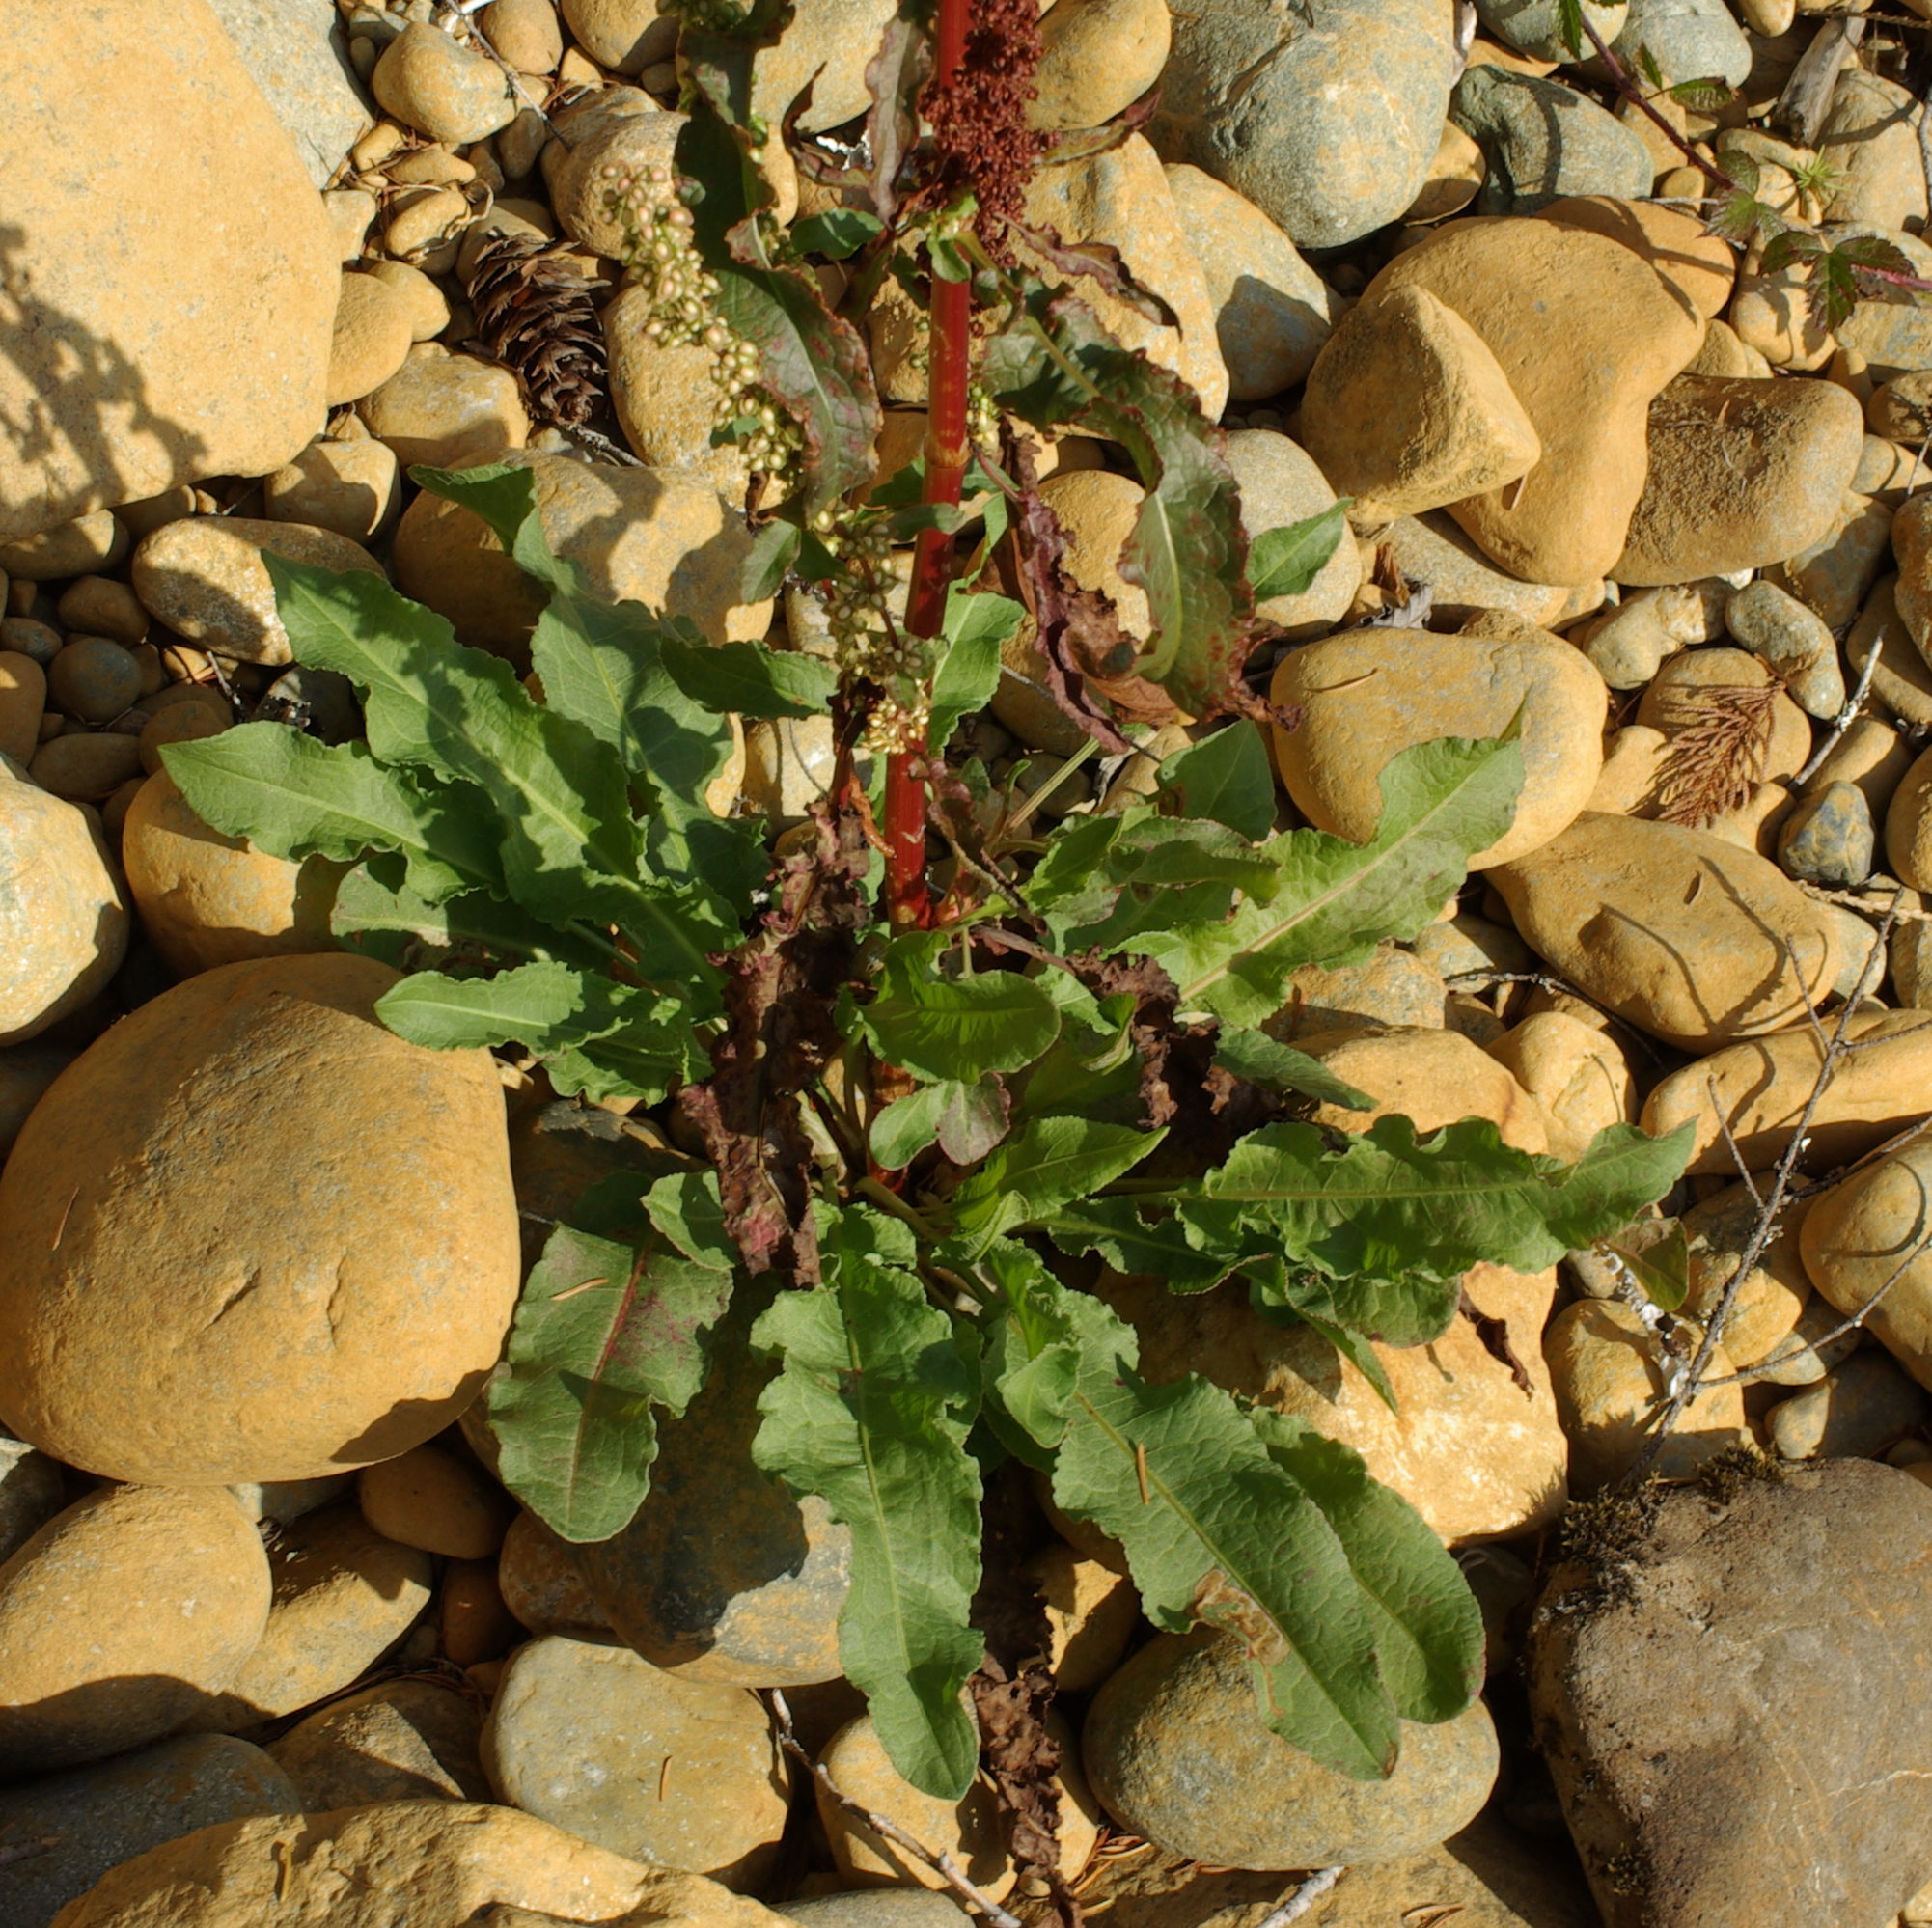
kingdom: Plantae
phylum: Tracheophyta
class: Magnoliopsida
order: Caryophyllales
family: Polygonaceae
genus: Rumex
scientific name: Rumex crispus
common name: Curled dock
